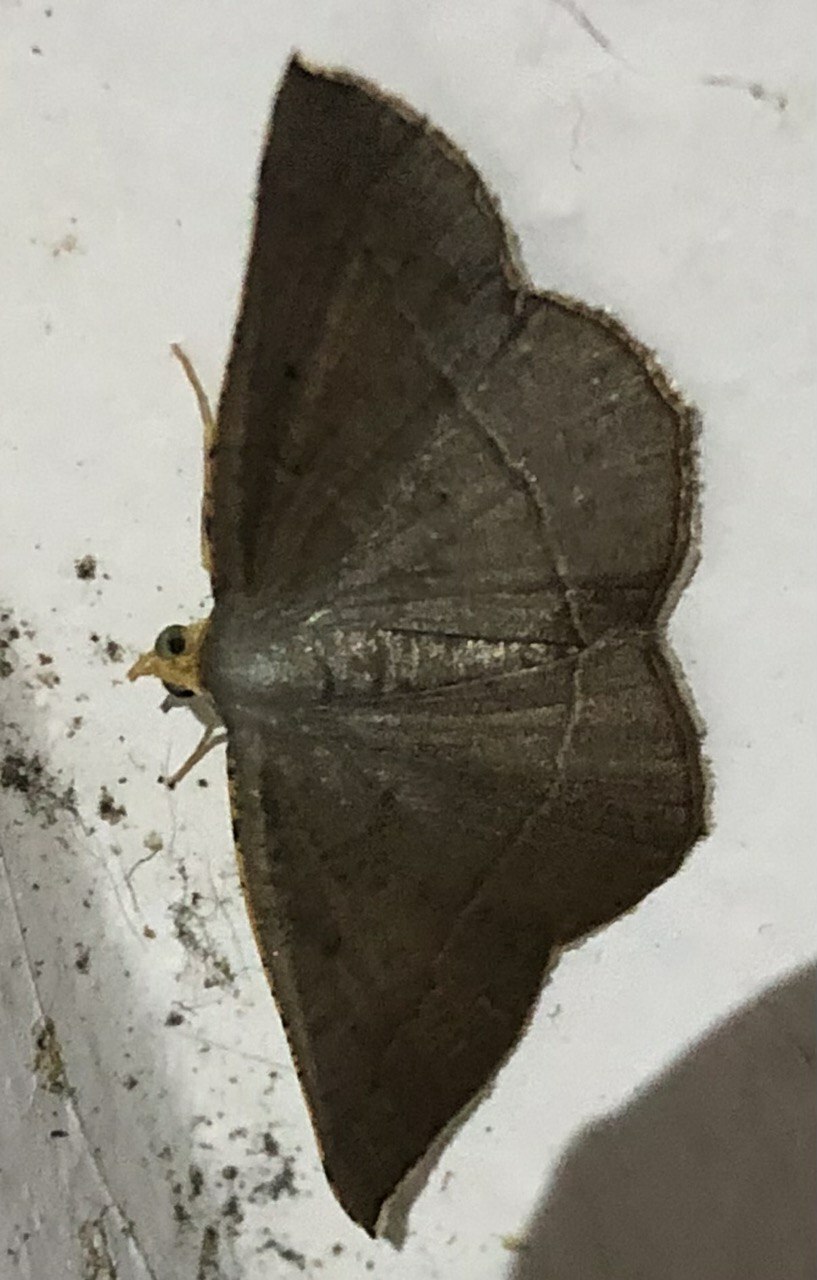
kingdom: Animalia
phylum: Arthropoda
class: Insecta
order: Lepidoptera
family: Geometridae
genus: Plesiomorpha
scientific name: Plesiomorpha flaviceps
